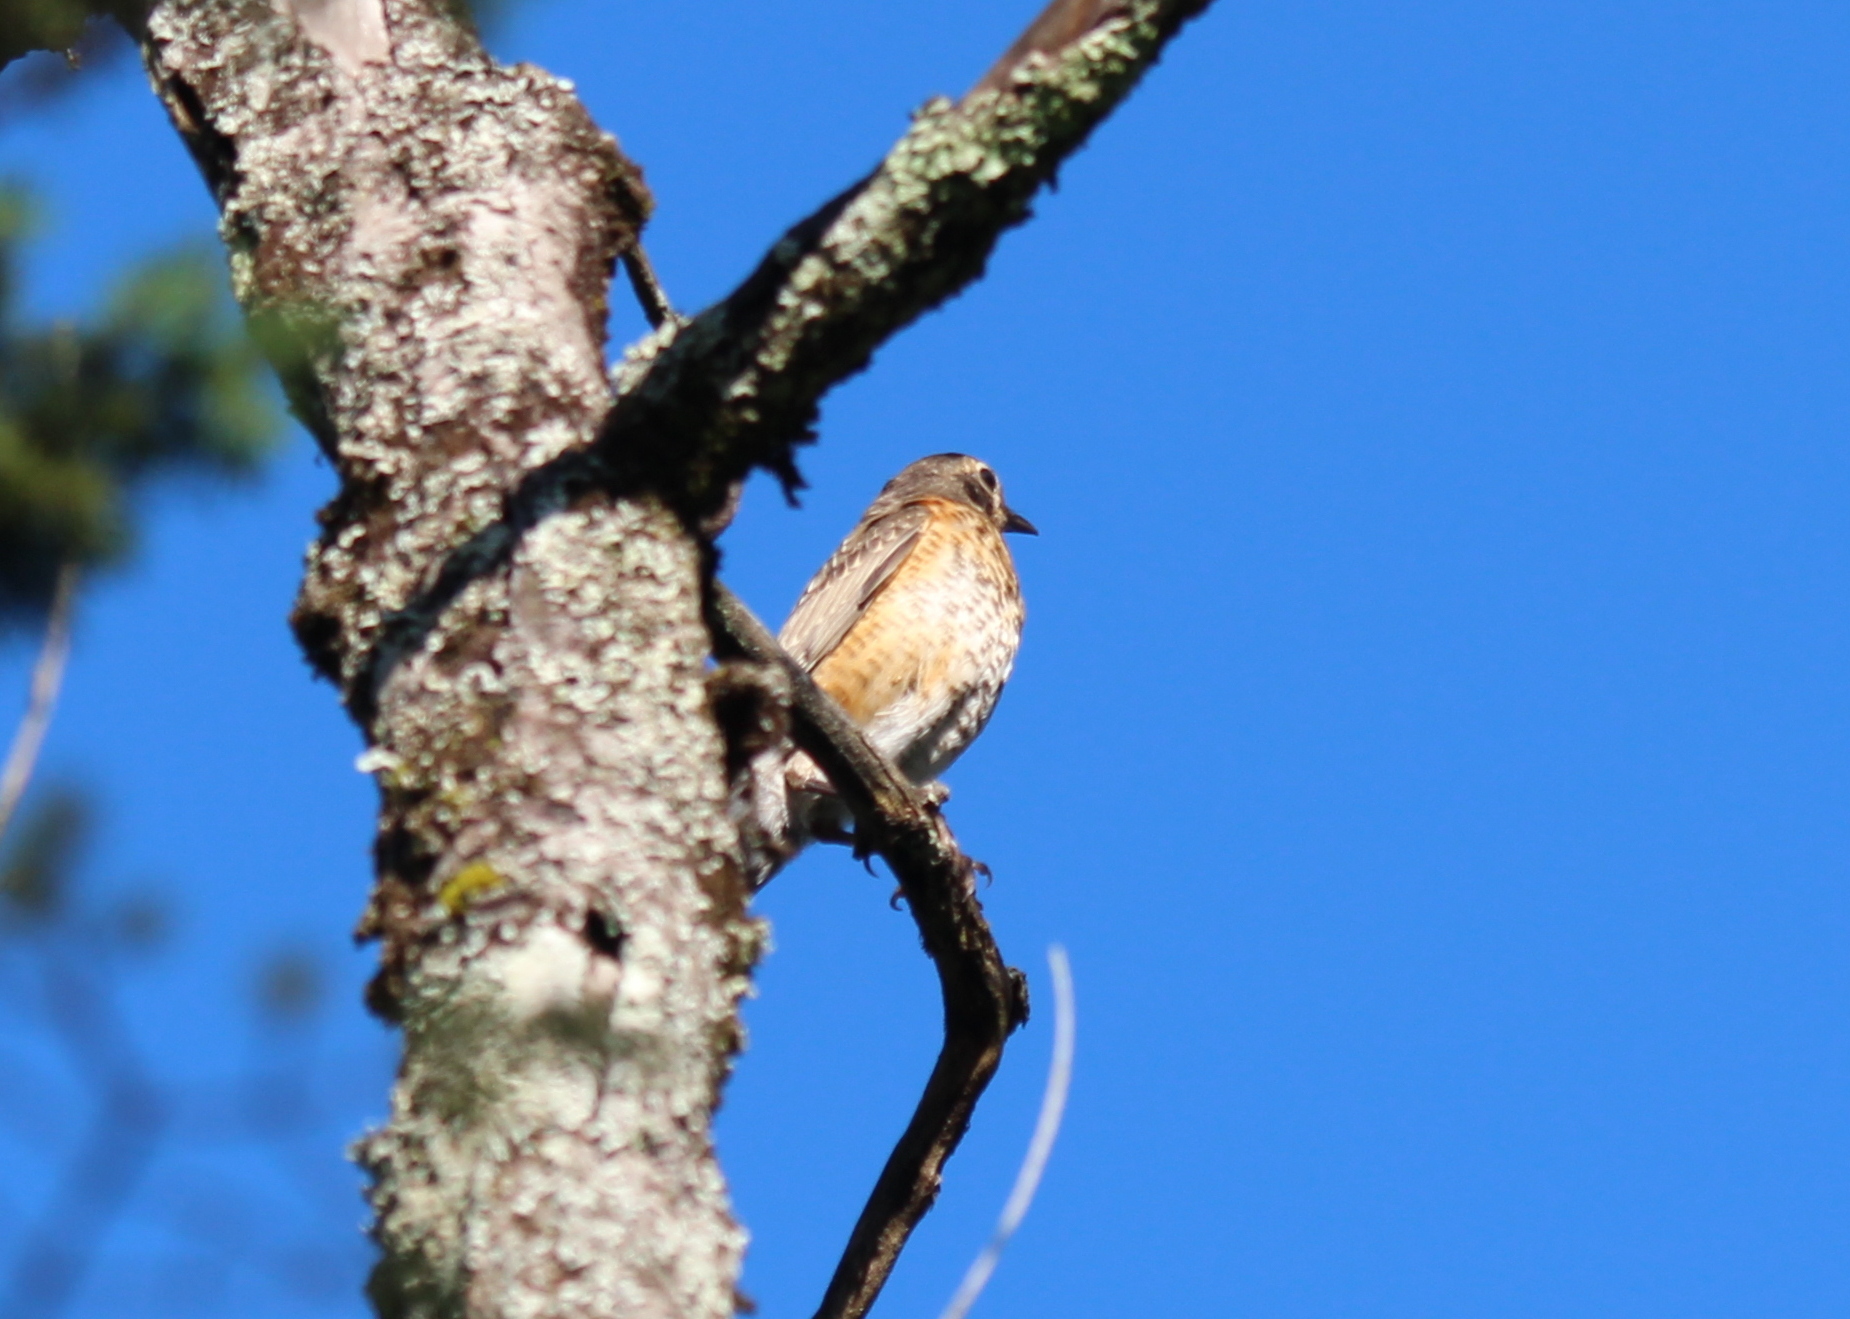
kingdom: Animalia
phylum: Chordata
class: Aves
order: Passeriformes
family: Turdidae
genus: Turdus
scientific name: Turdus migratorius
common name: American robin
